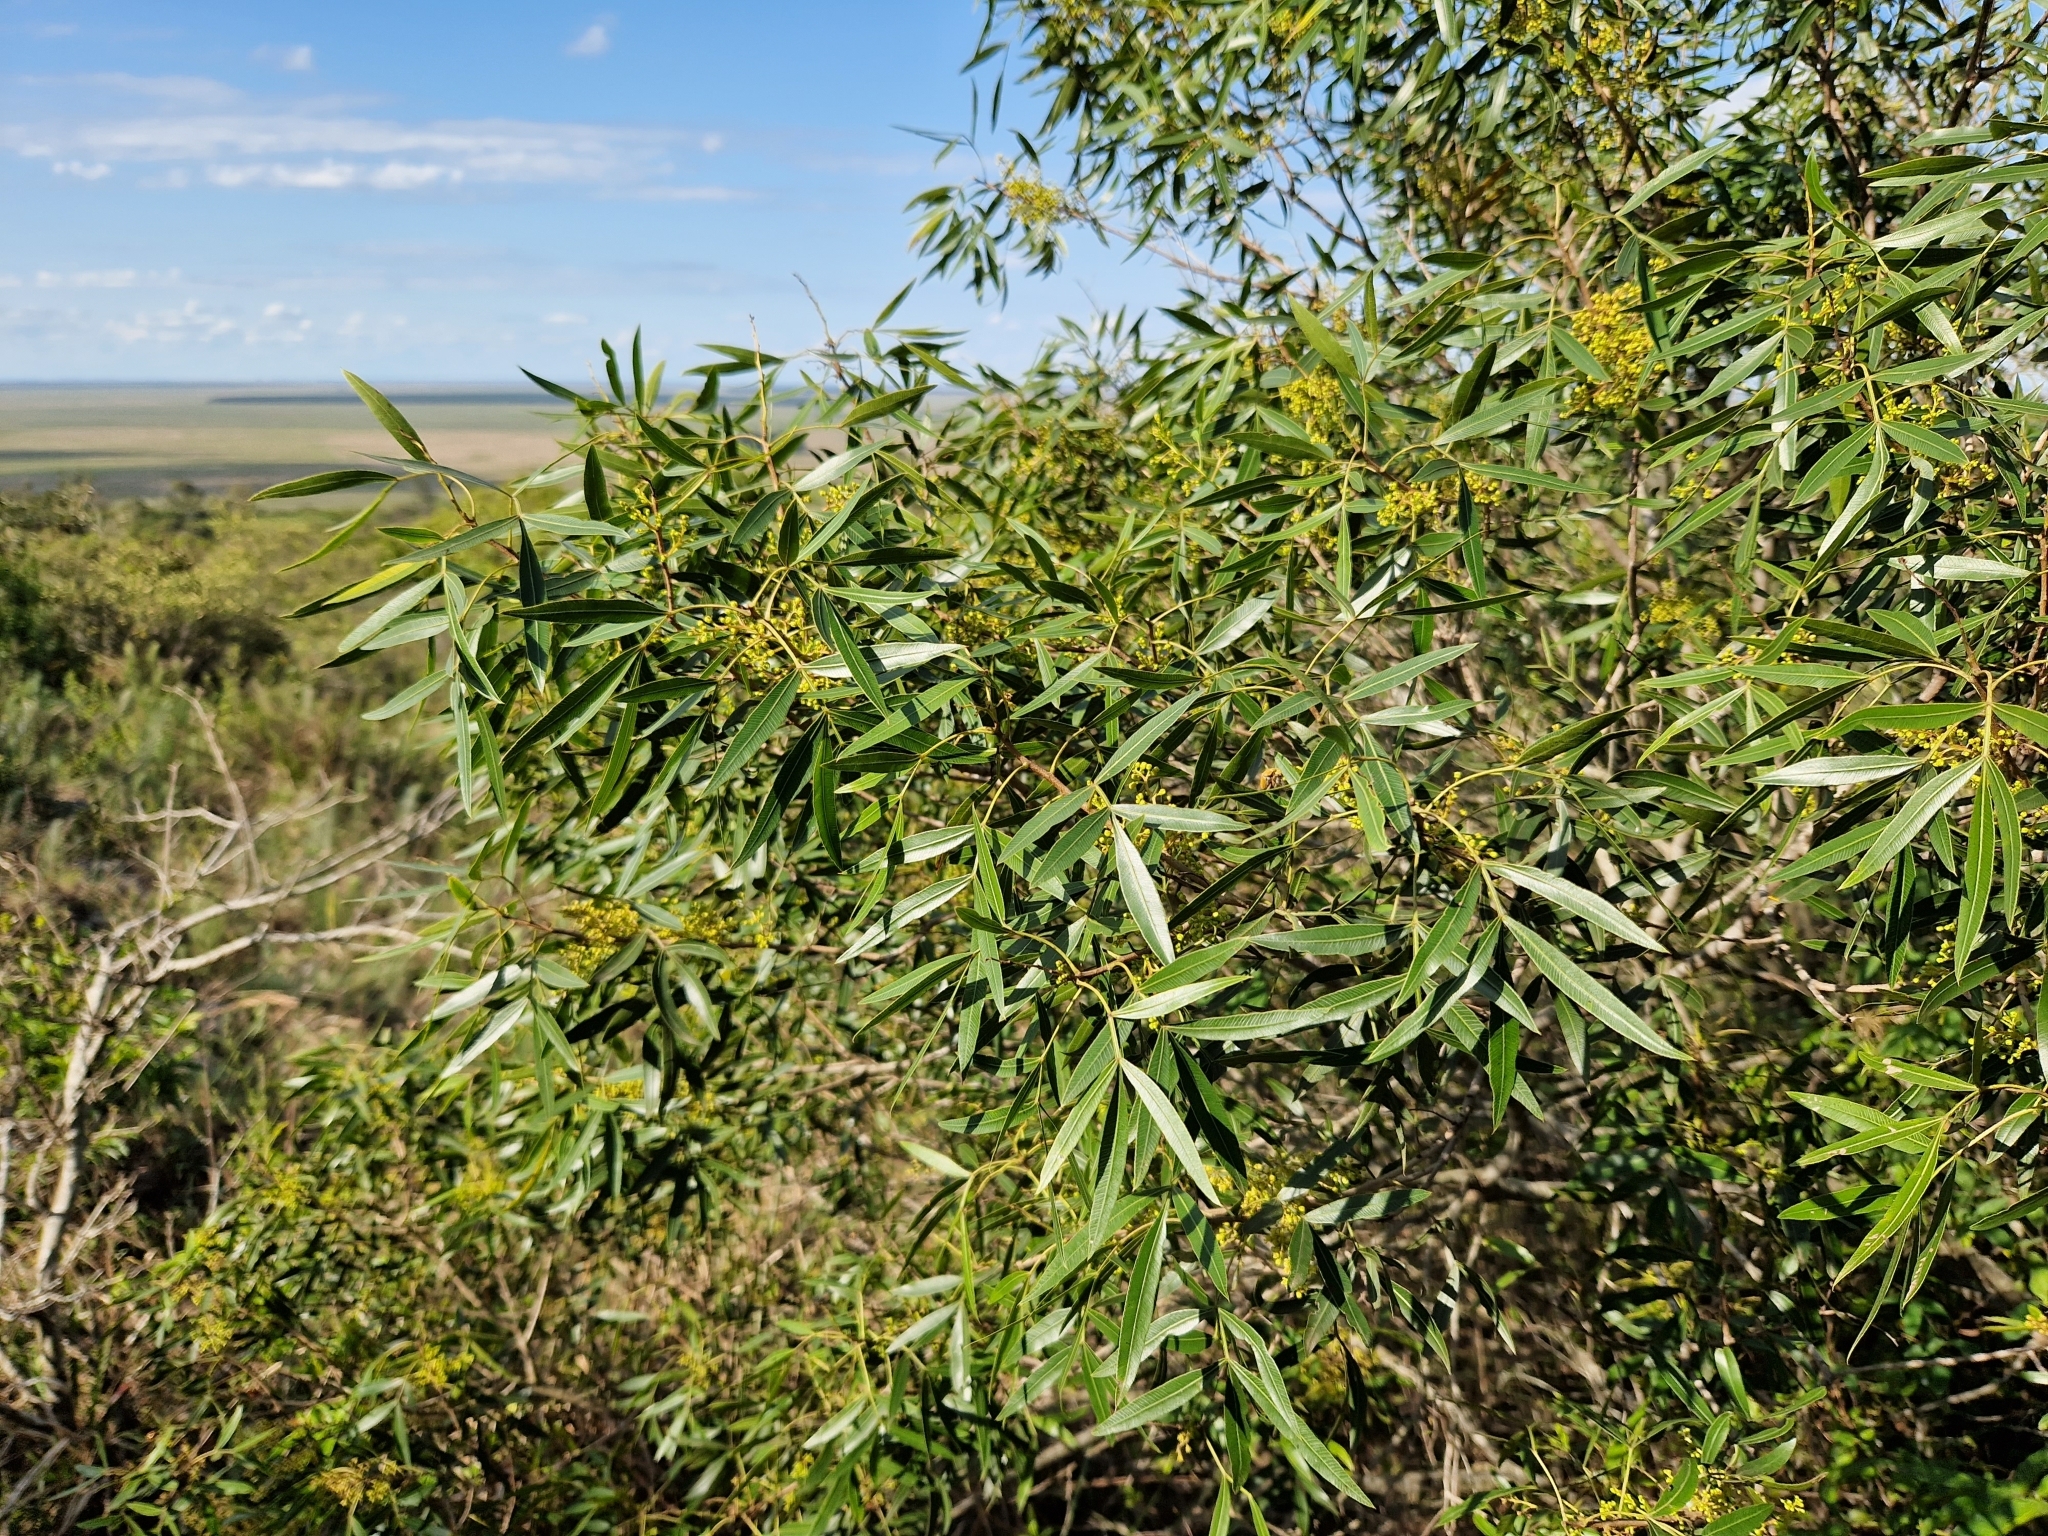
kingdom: Plantae
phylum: Tracheophyta
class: Magnoliopsida
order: Sapindales
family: Anacardiaceae
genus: Lithraea
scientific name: Lithraea molleoides
